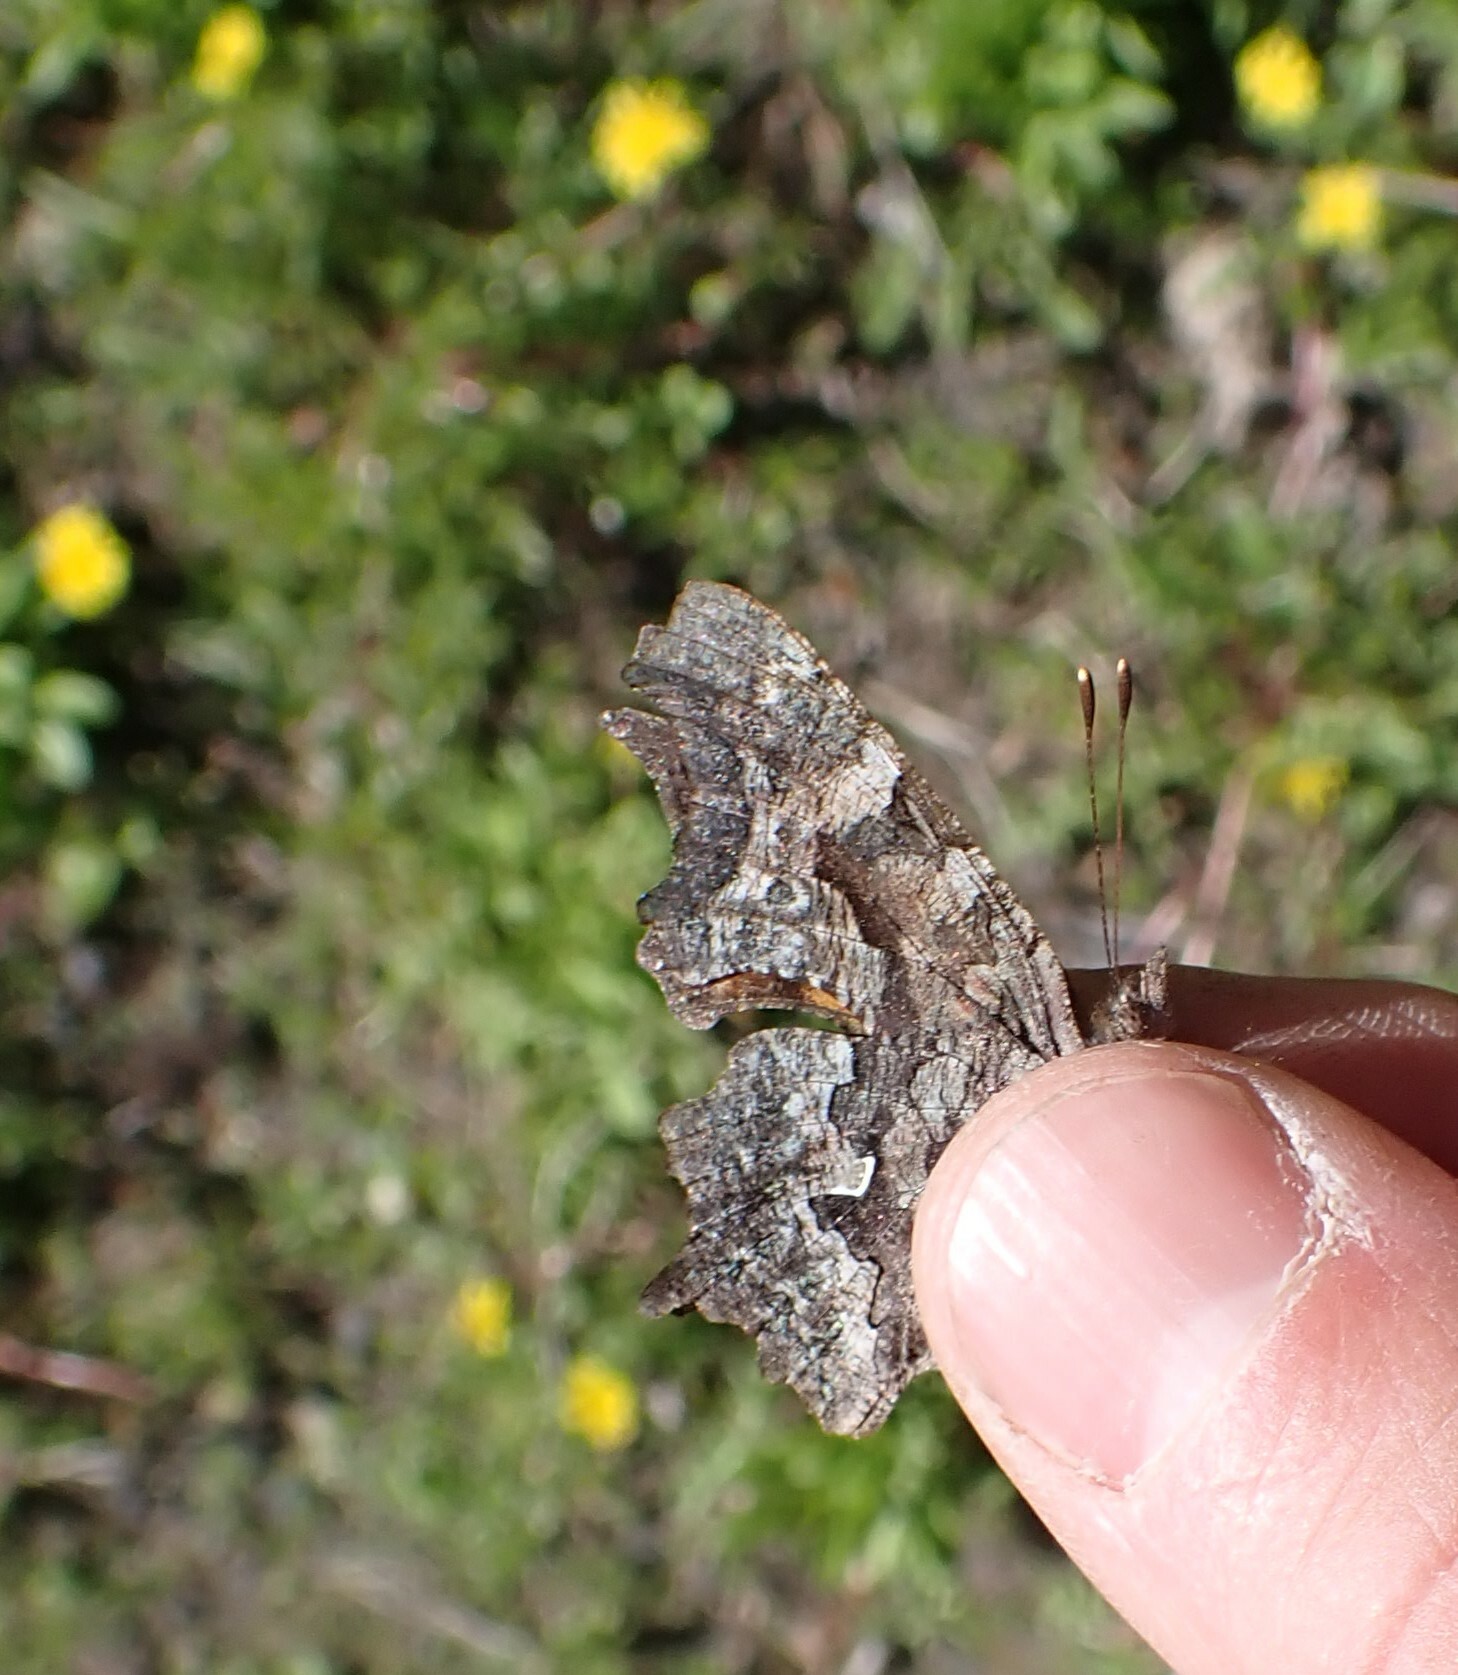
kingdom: Animalia
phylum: Arthropoda
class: Insecta
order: Lepidoptera
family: Nymphalidae
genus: Polygonia
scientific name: Polygonia faunus
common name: Green comma
